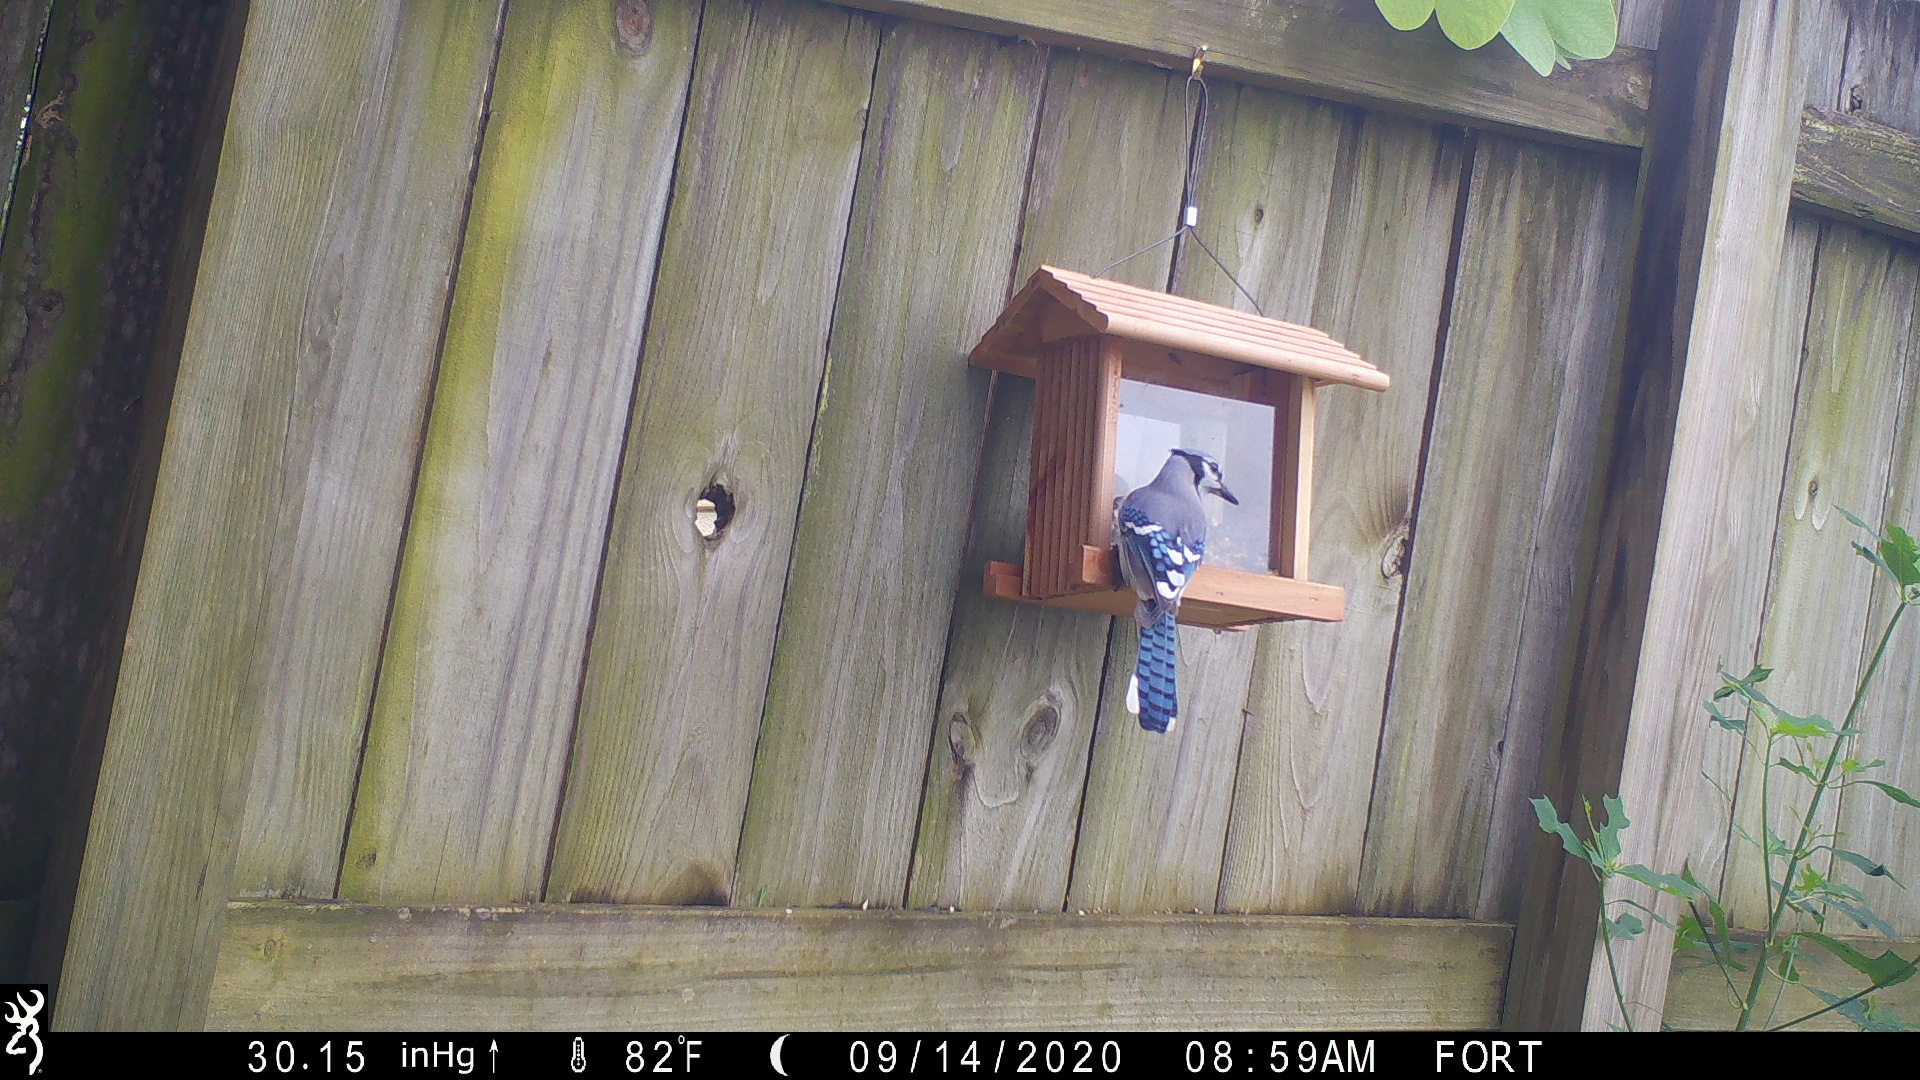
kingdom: Animalia
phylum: Chordata
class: Aves
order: Passeriformes
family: Corvidae
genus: Cyanocitta
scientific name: Cyanocitta cristata
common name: Blue jay
